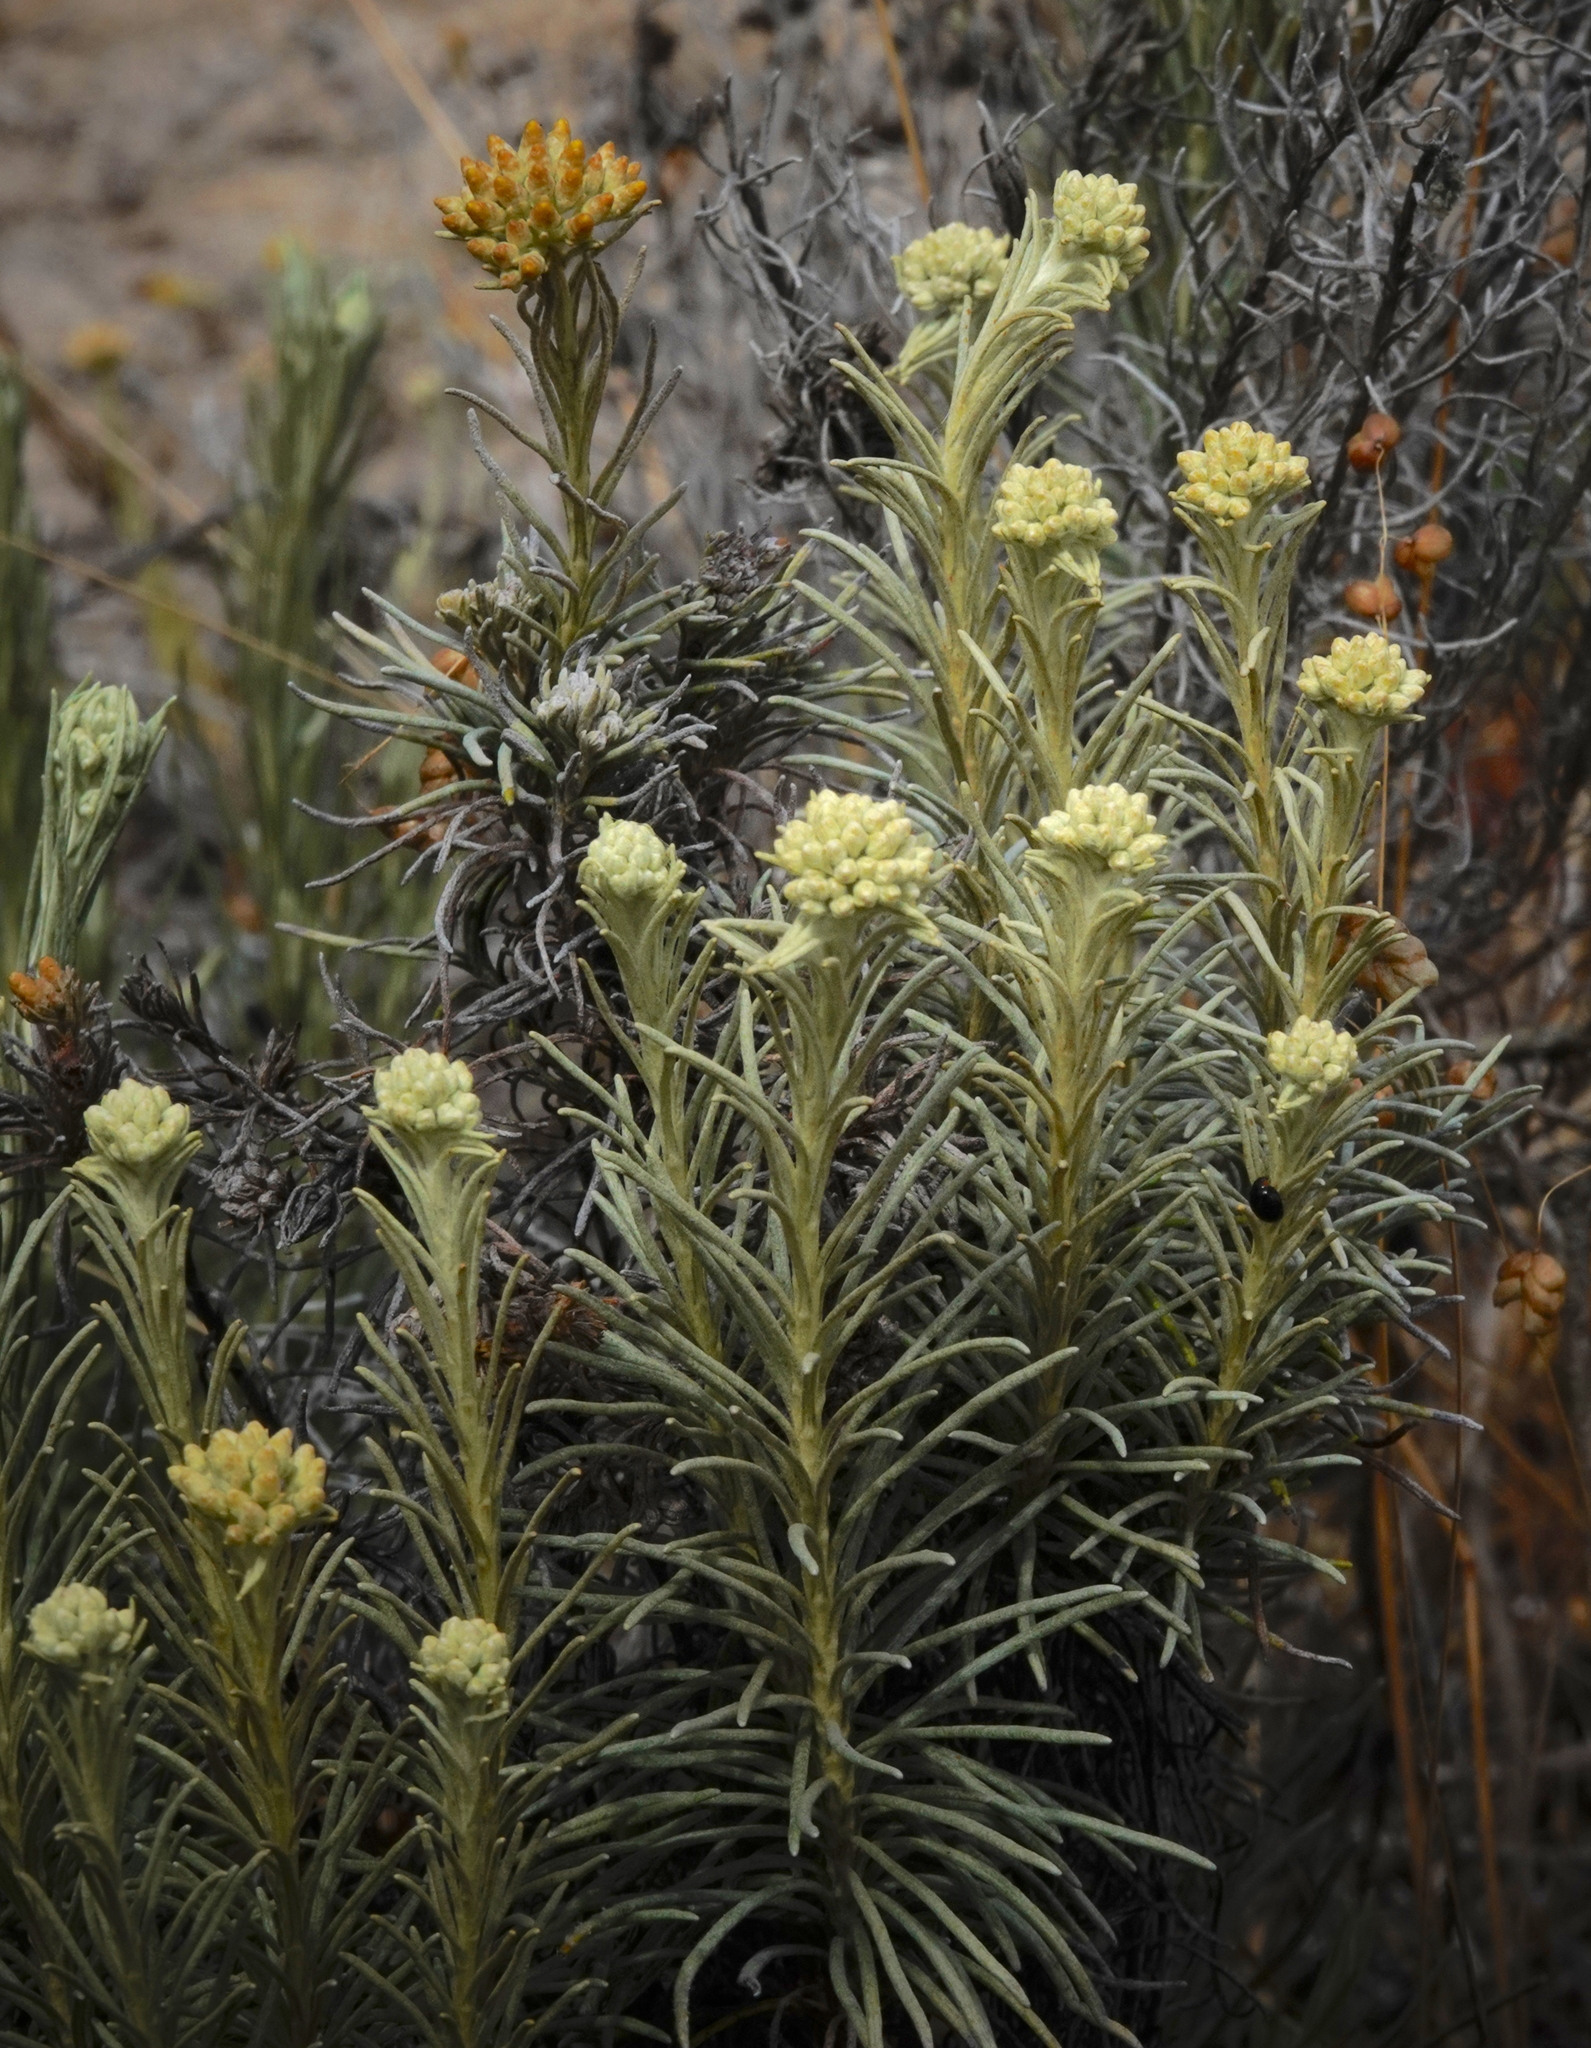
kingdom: Plantae
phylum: Tracheophyta
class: Magnoliopsida
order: Asterales
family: Asteraceae
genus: Helichrysum
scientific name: Helichrysum serotinum
